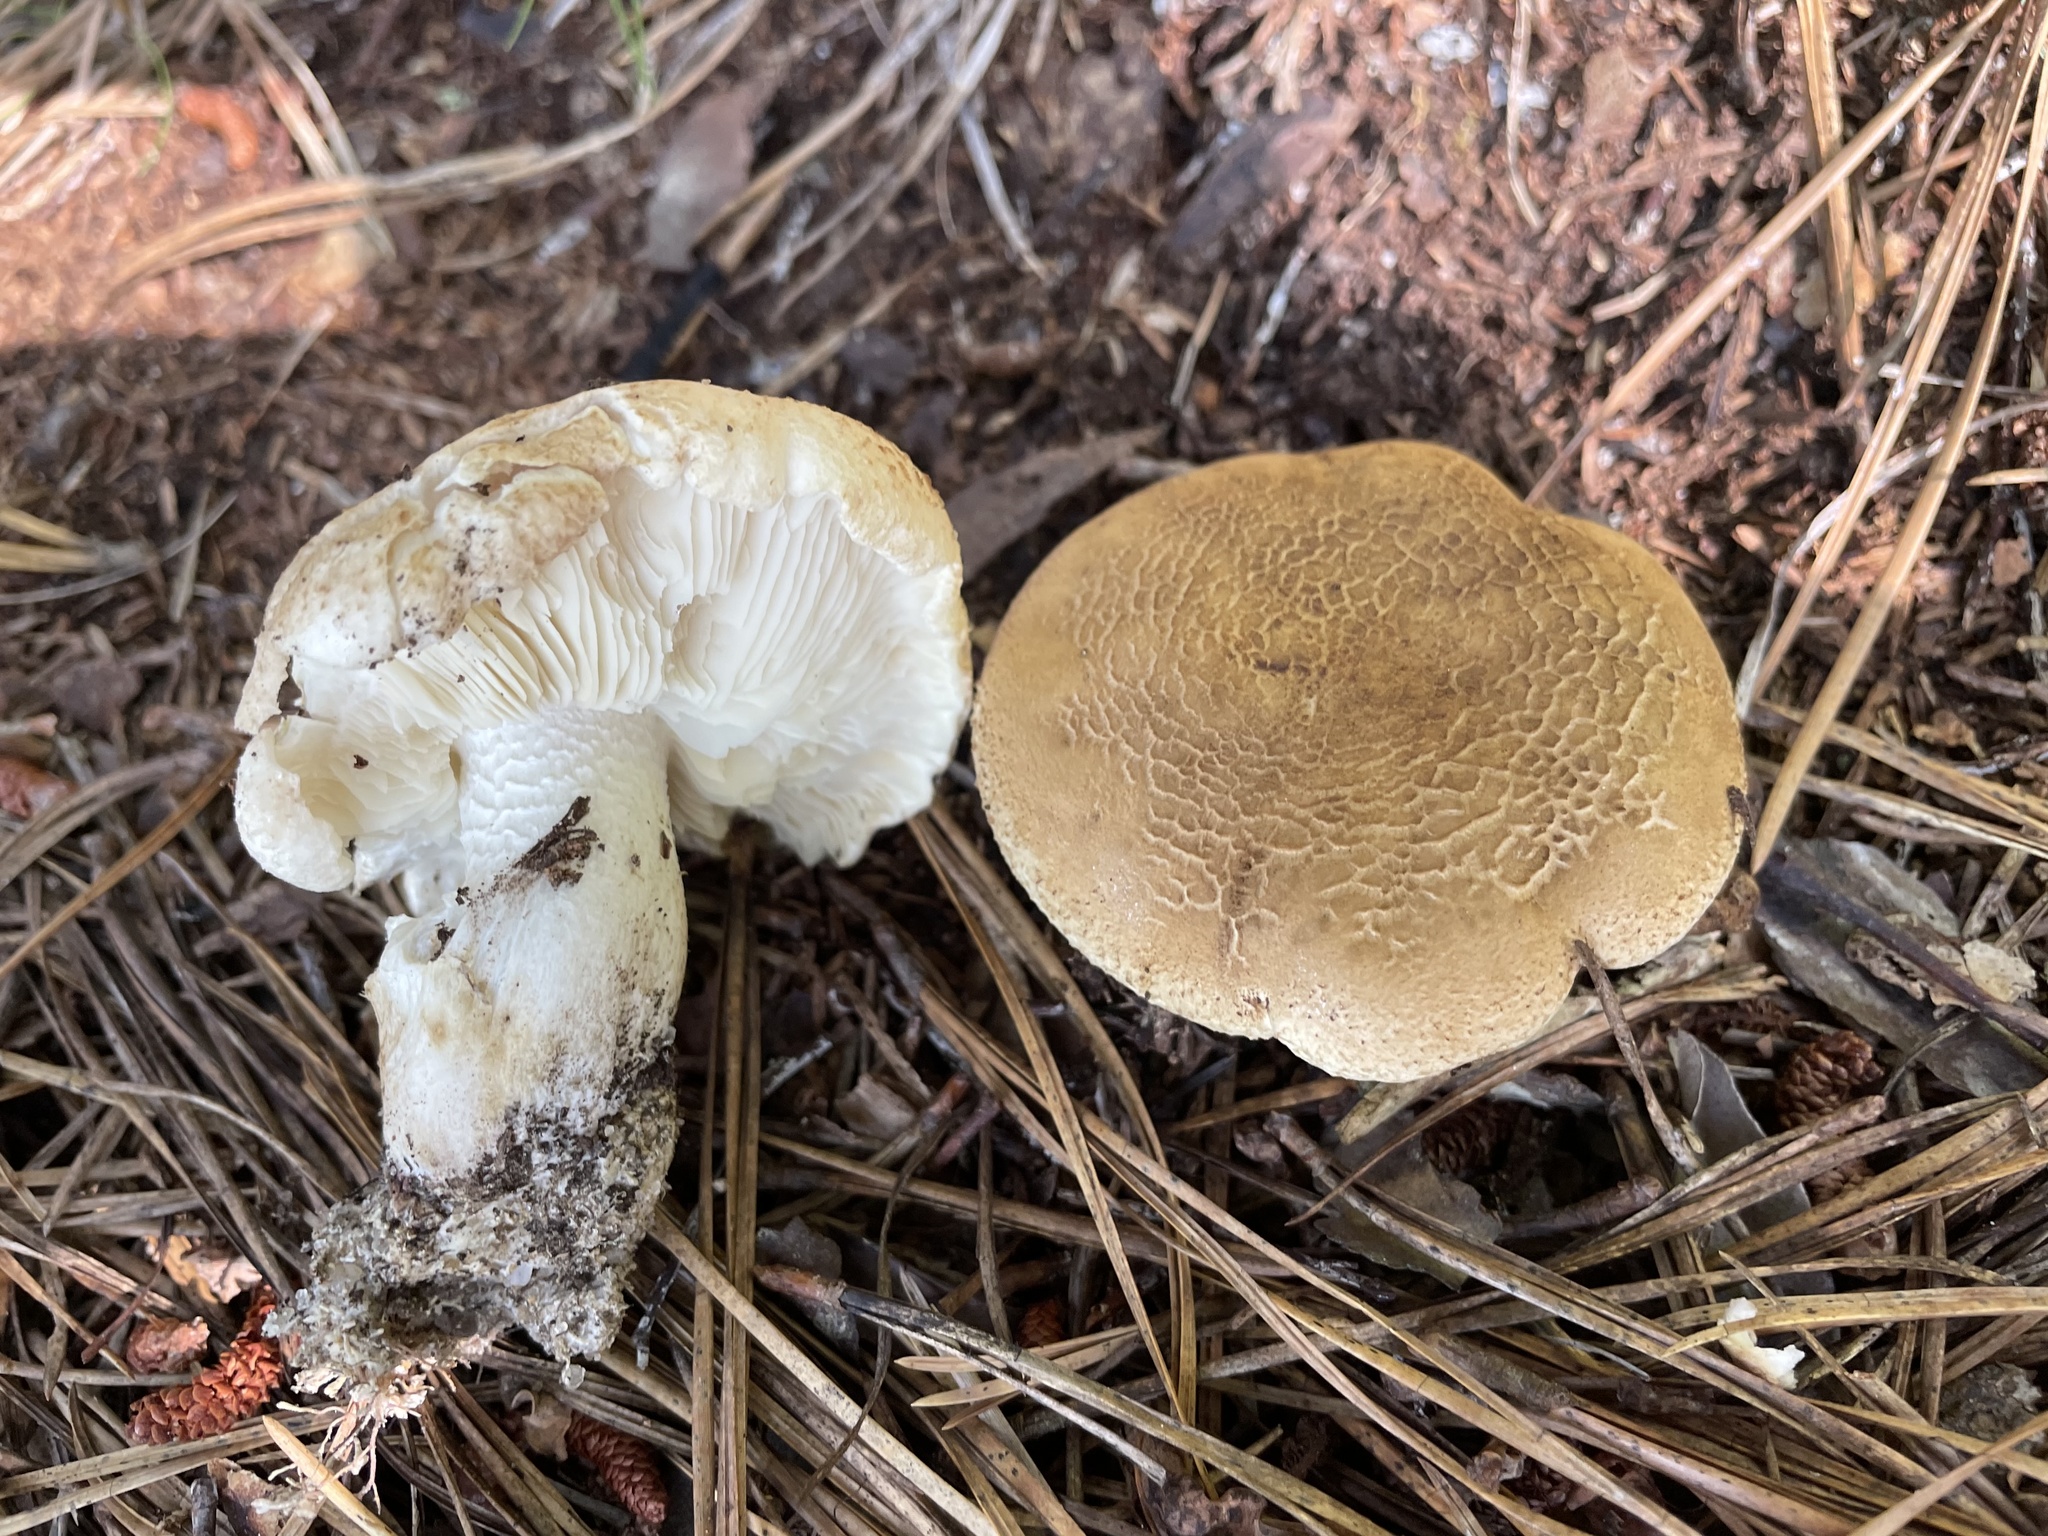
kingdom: Fungi
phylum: Basidiomycota
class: Agaricomycetes
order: Agaricales
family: Tricholomataceae
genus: Tricholoma
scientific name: Tricholoma apium
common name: Scented knight
